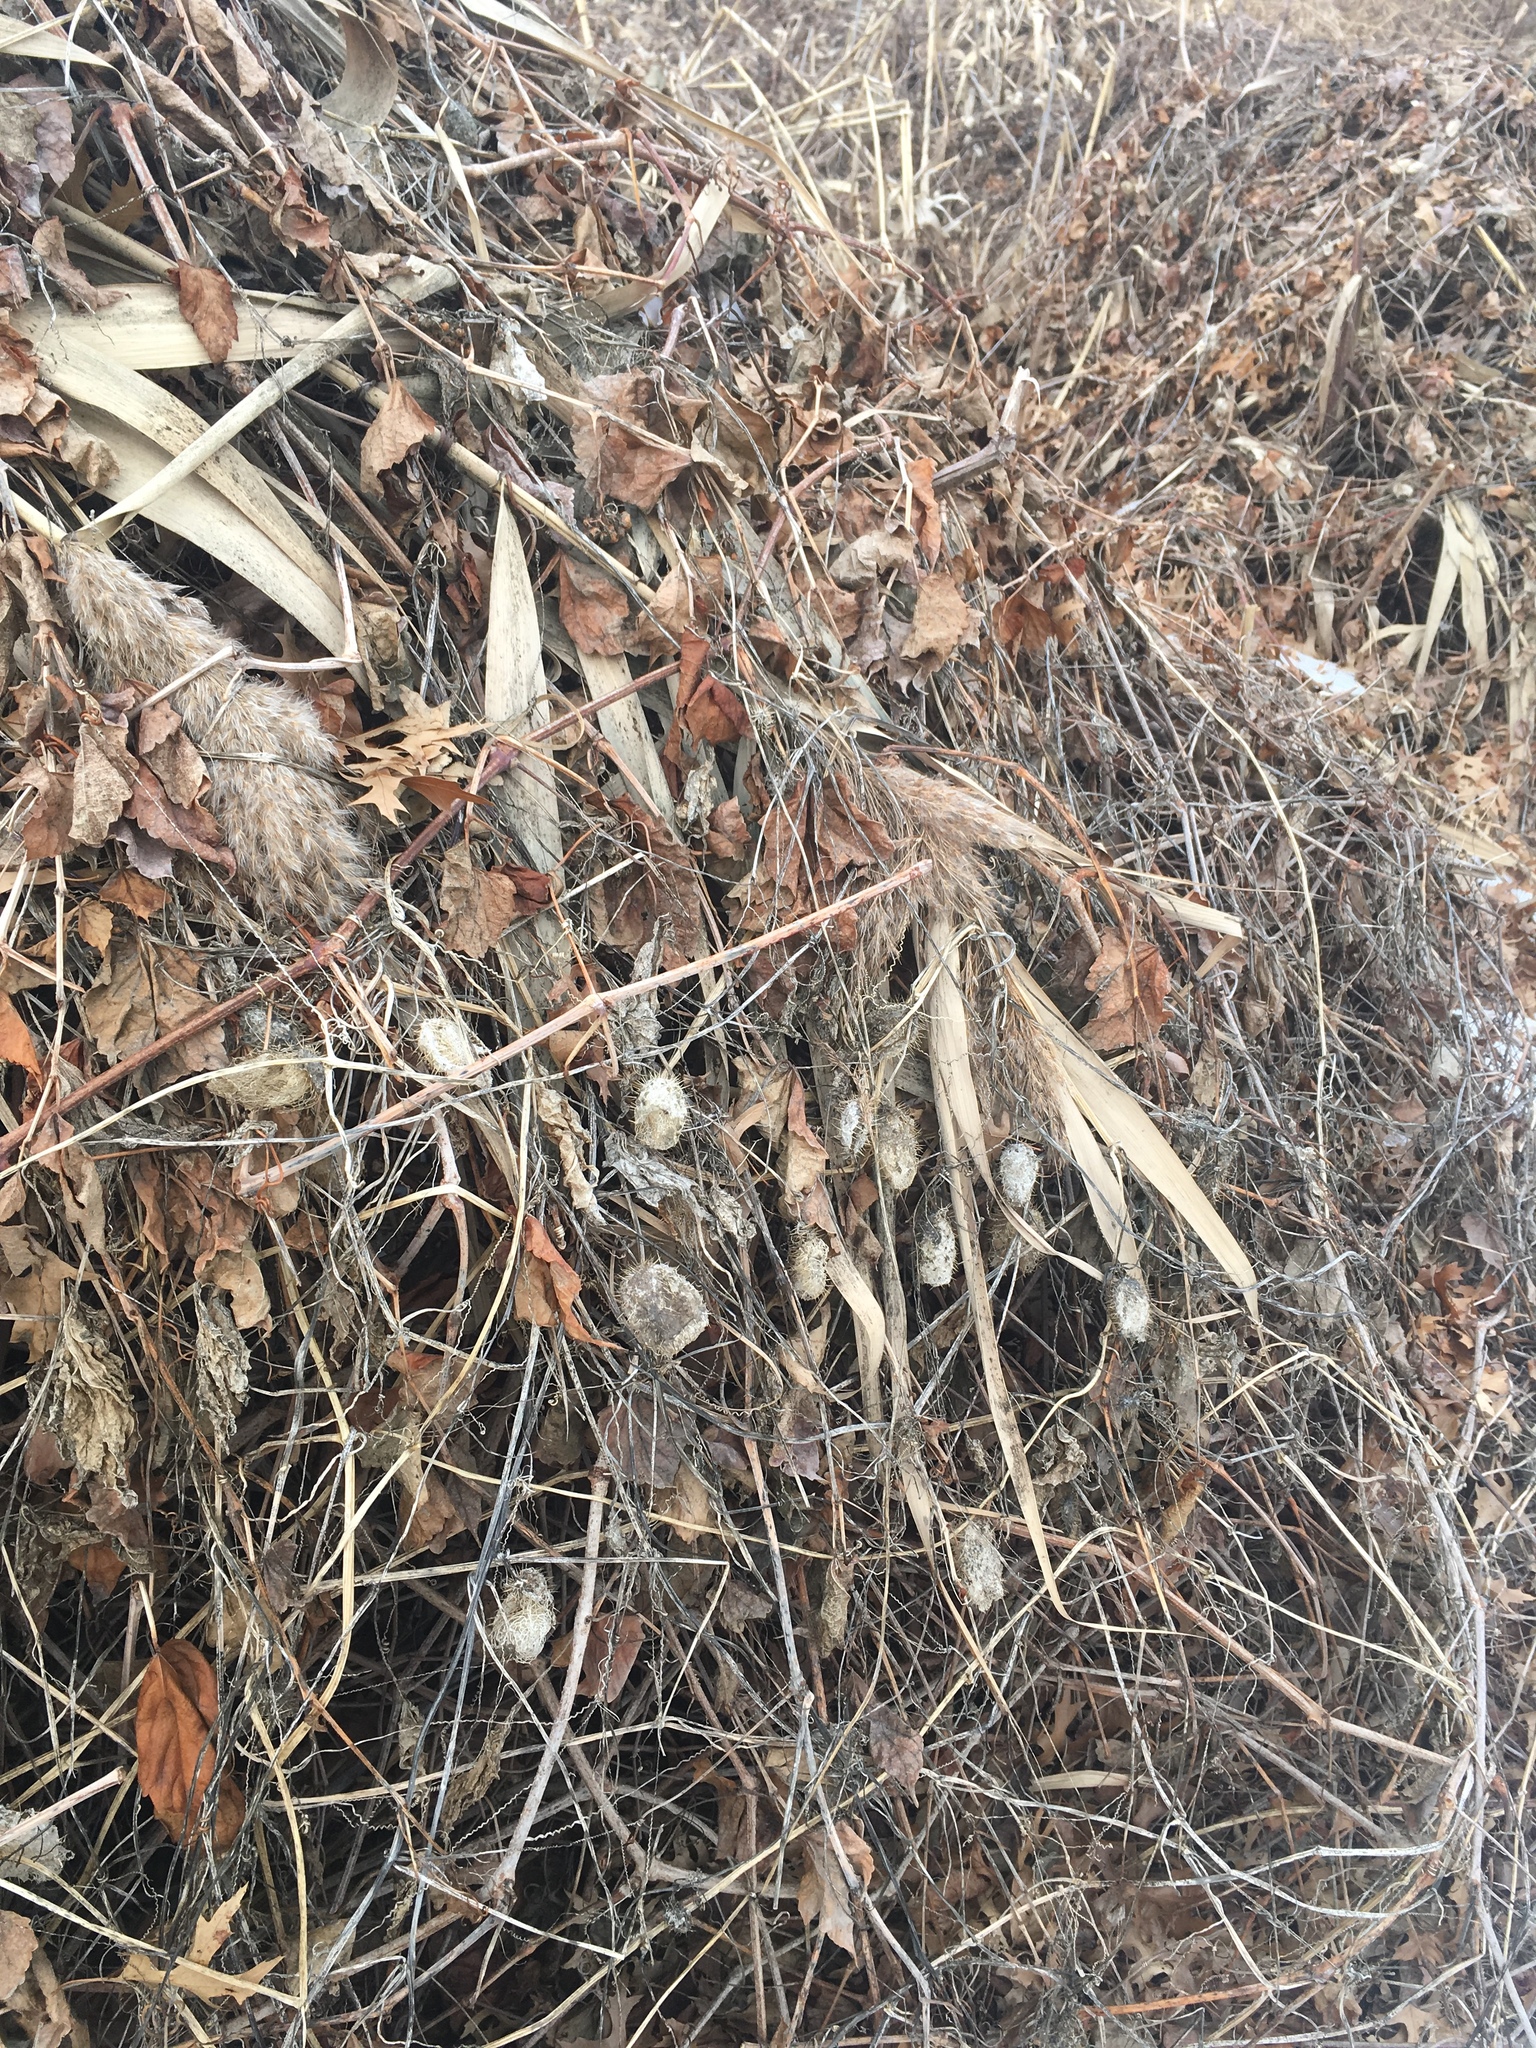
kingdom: Plantae
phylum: Tracheophyta
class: Magnoliopsida
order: Cucurbitales
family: Cucurbitaceae
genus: Echinocystis
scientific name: Echinocystis lobata
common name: Wild cucumber
